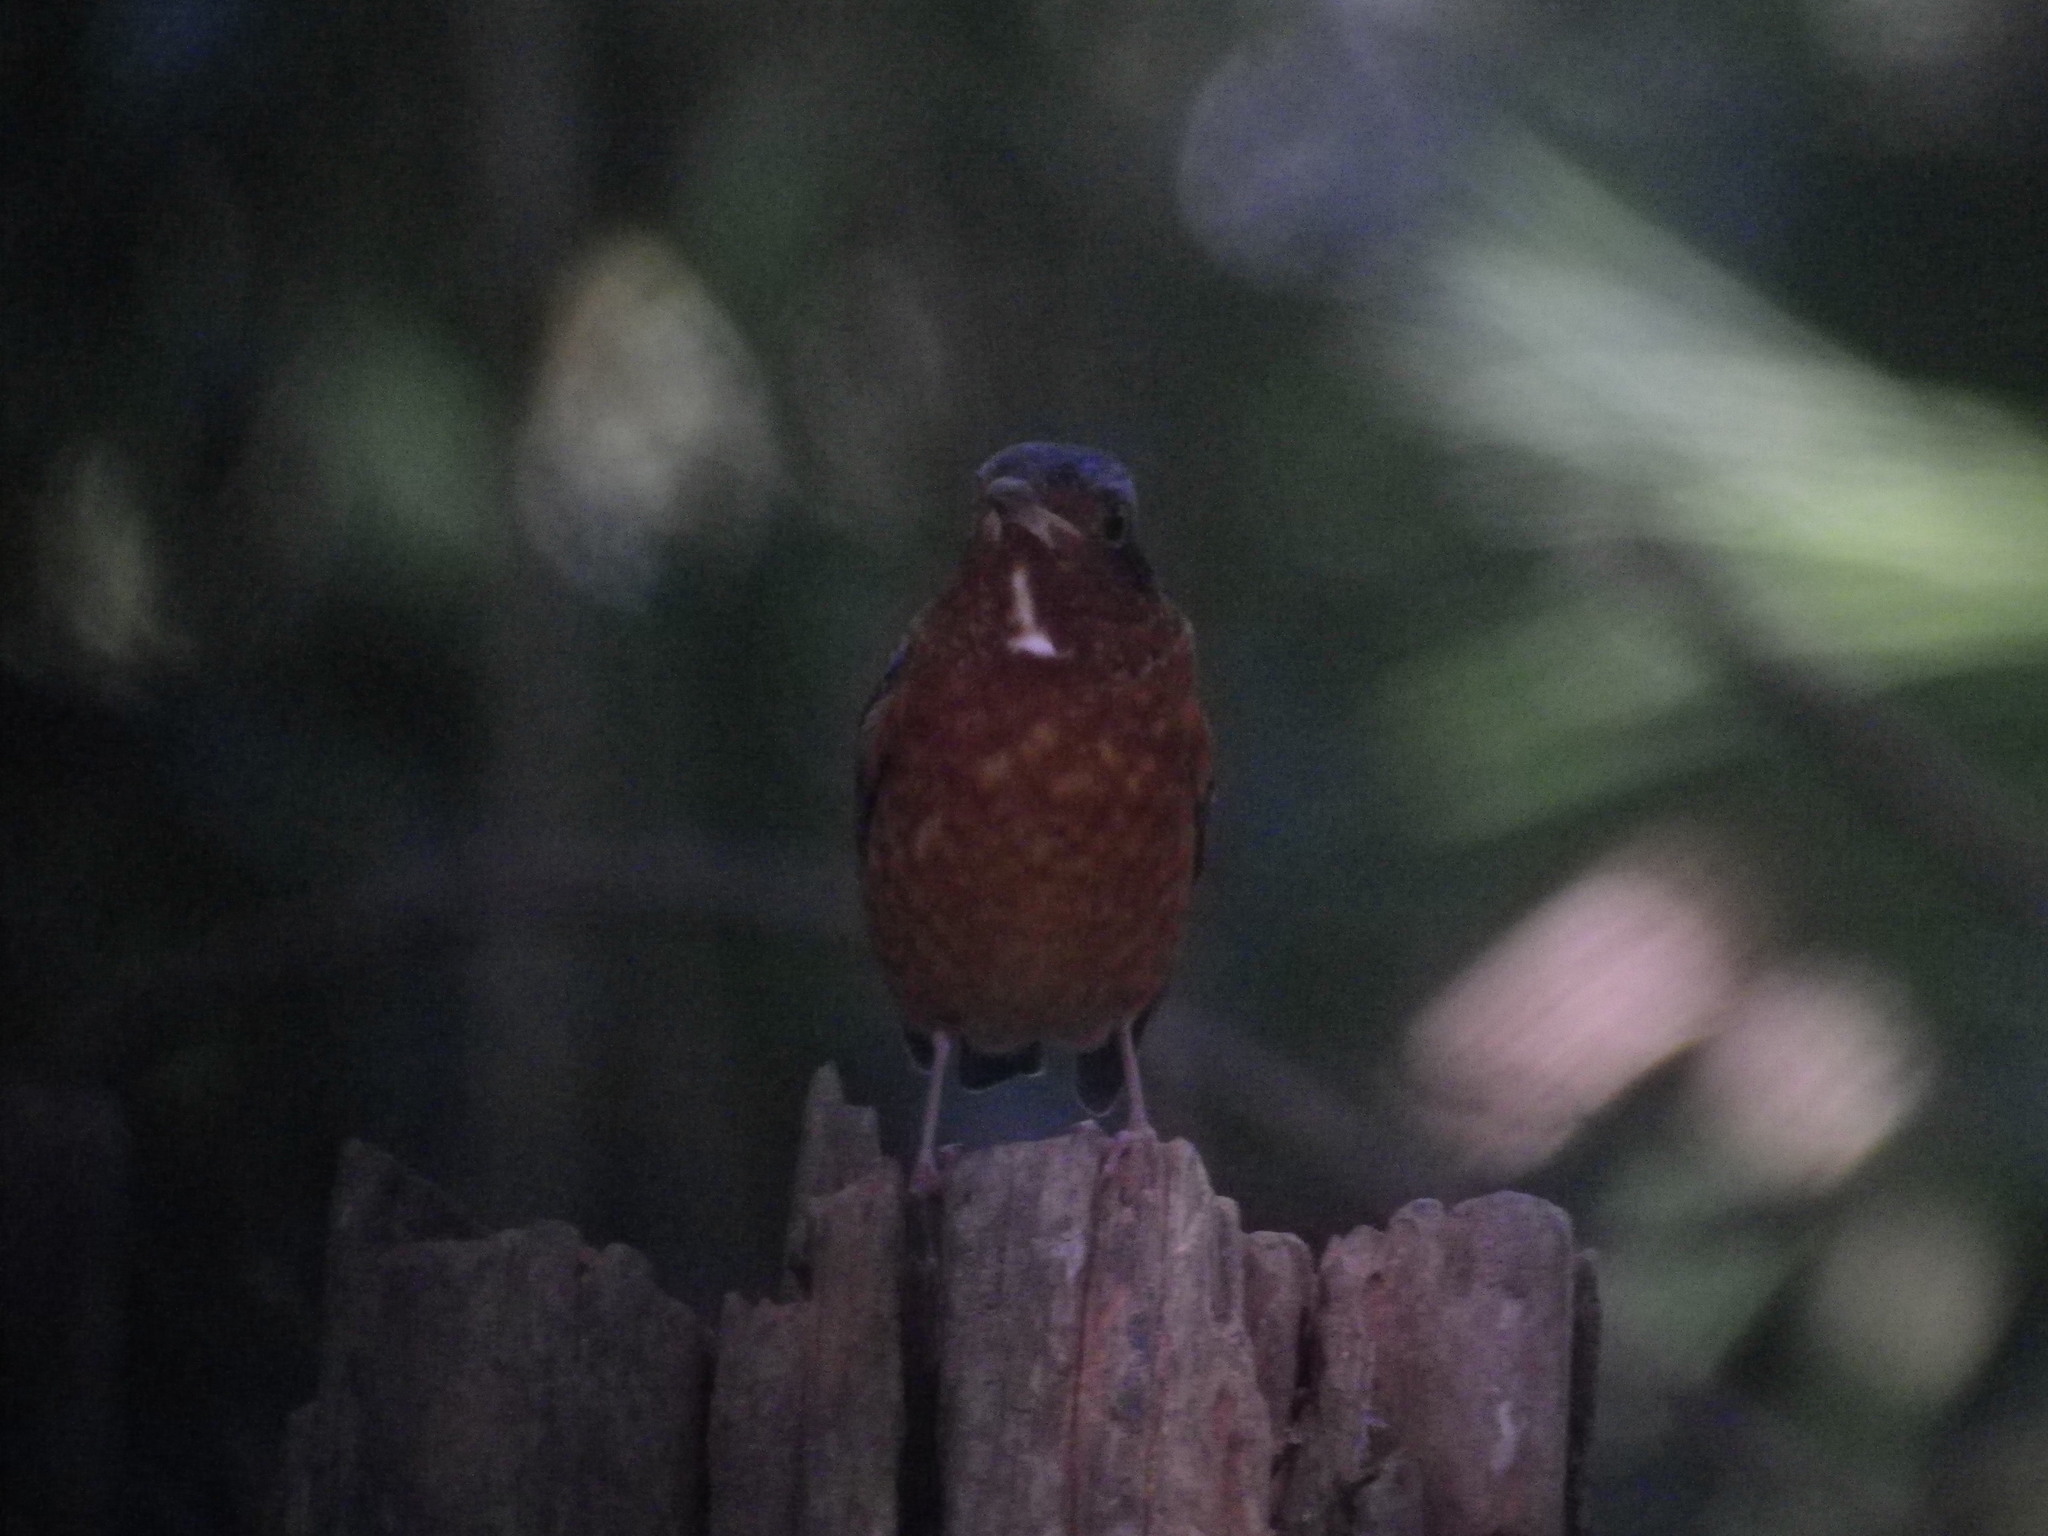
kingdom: Animalia
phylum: Chordata
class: Aves
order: Passeriformes
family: Muscicapidae
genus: Monticola
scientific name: Monticola gularis
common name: White-throated rock thrush
